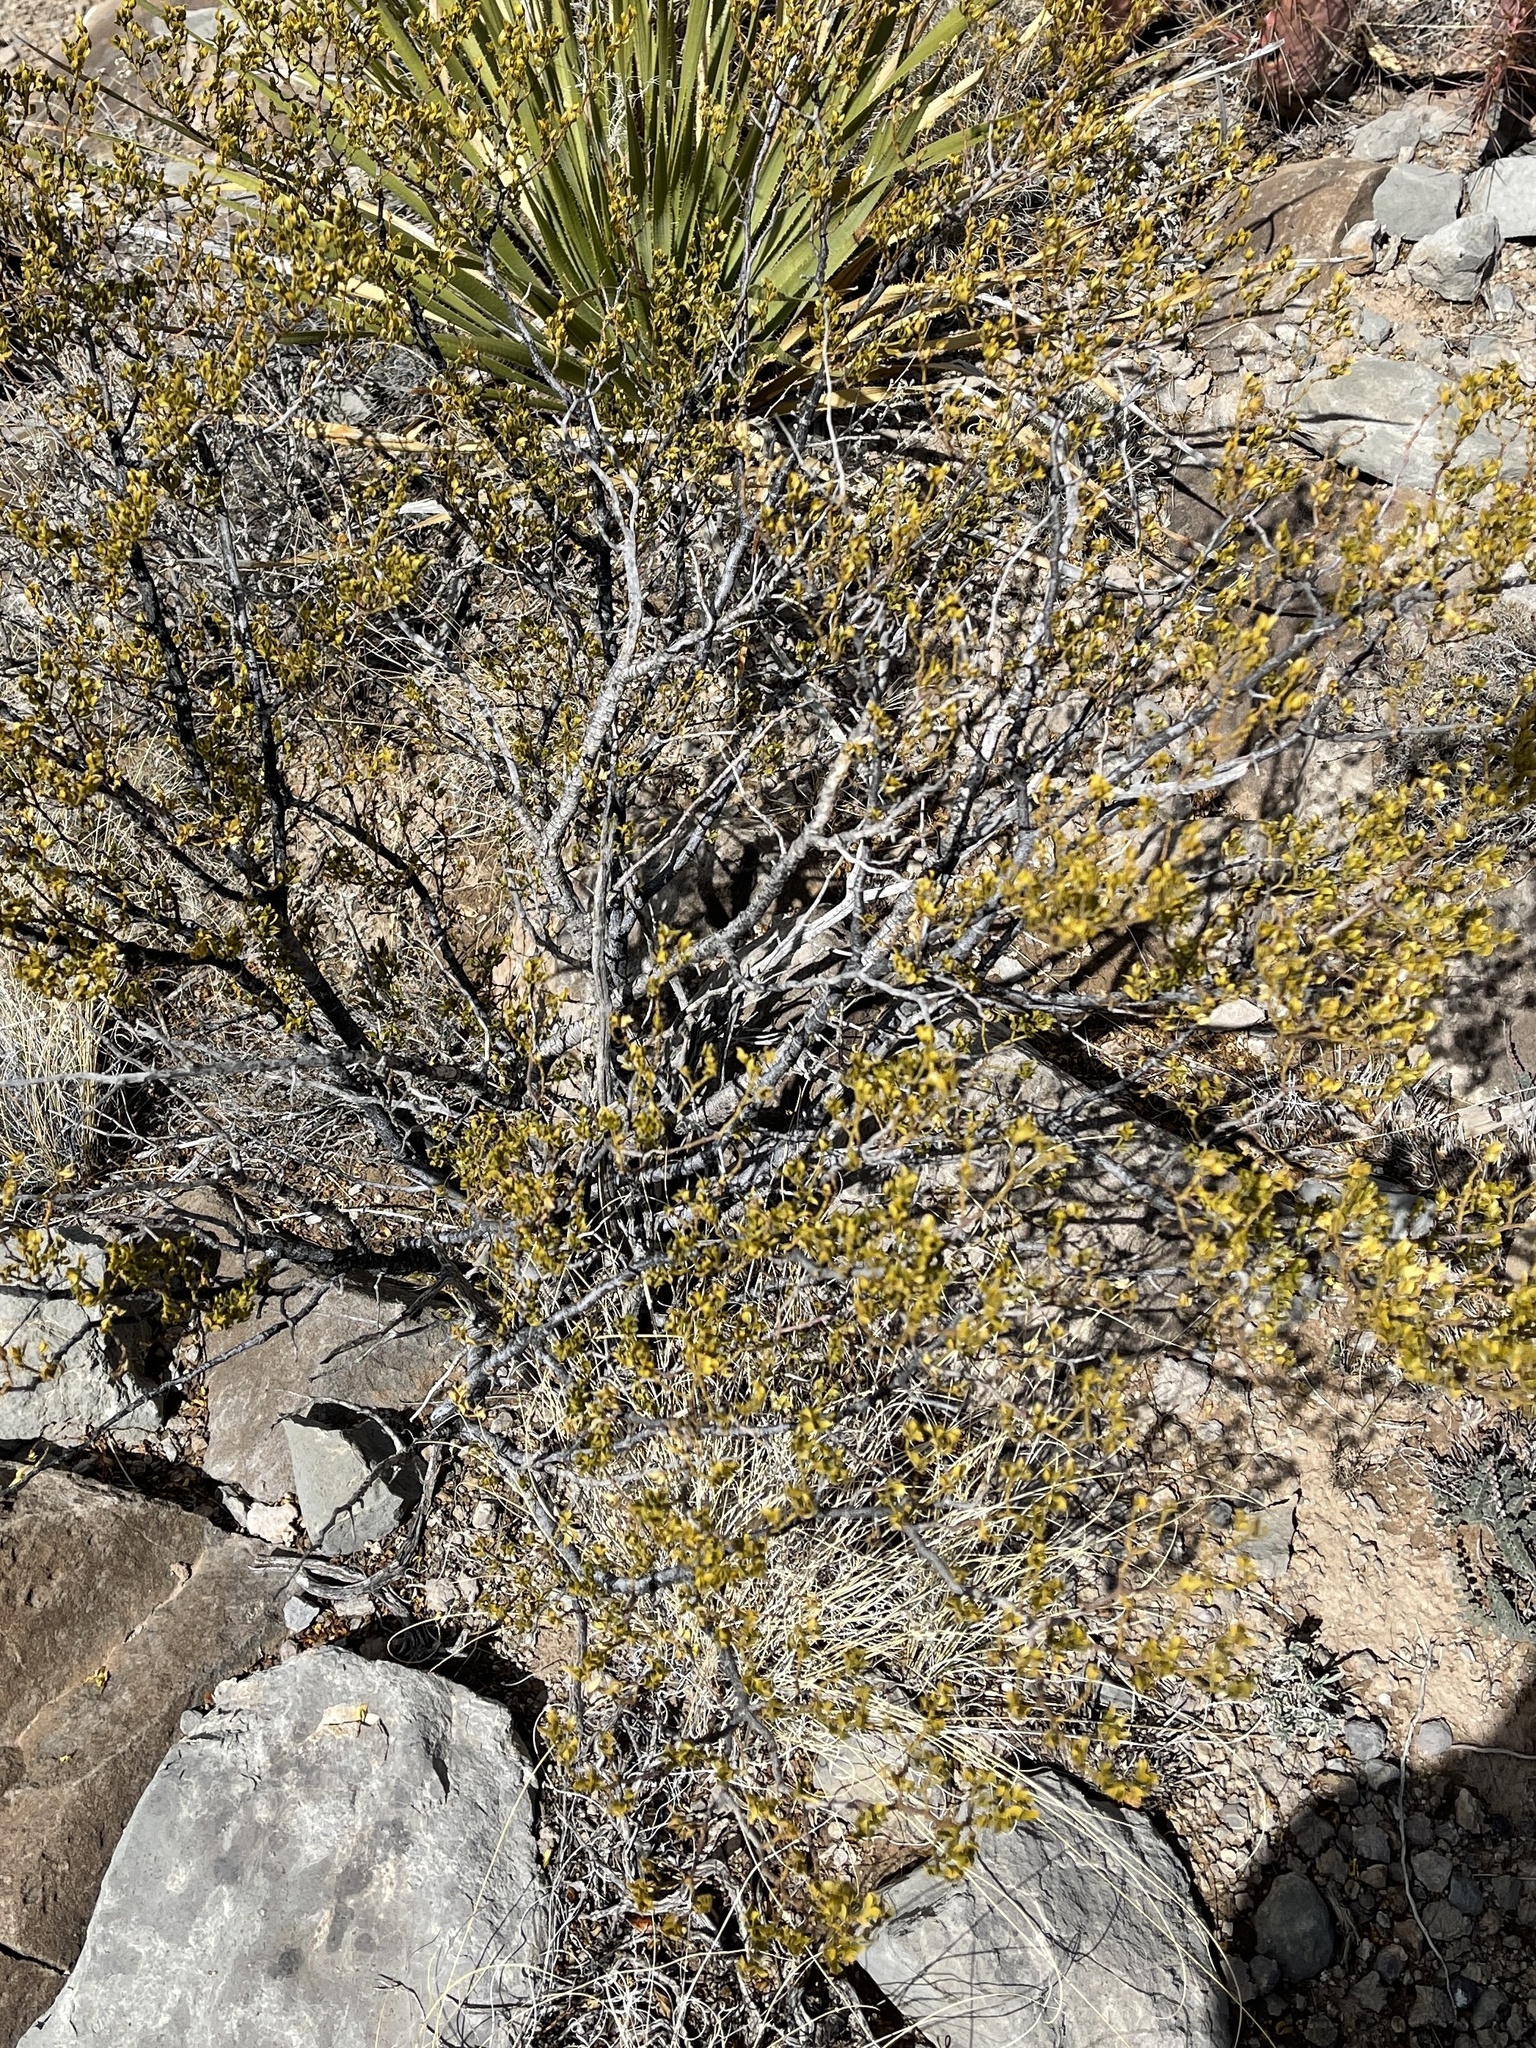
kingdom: Plantae
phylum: Tracheophyta
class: Magnoliopsida
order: Zygophyllales
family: Zygophyllaceae
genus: Larrea
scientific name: Larrea tridentata
